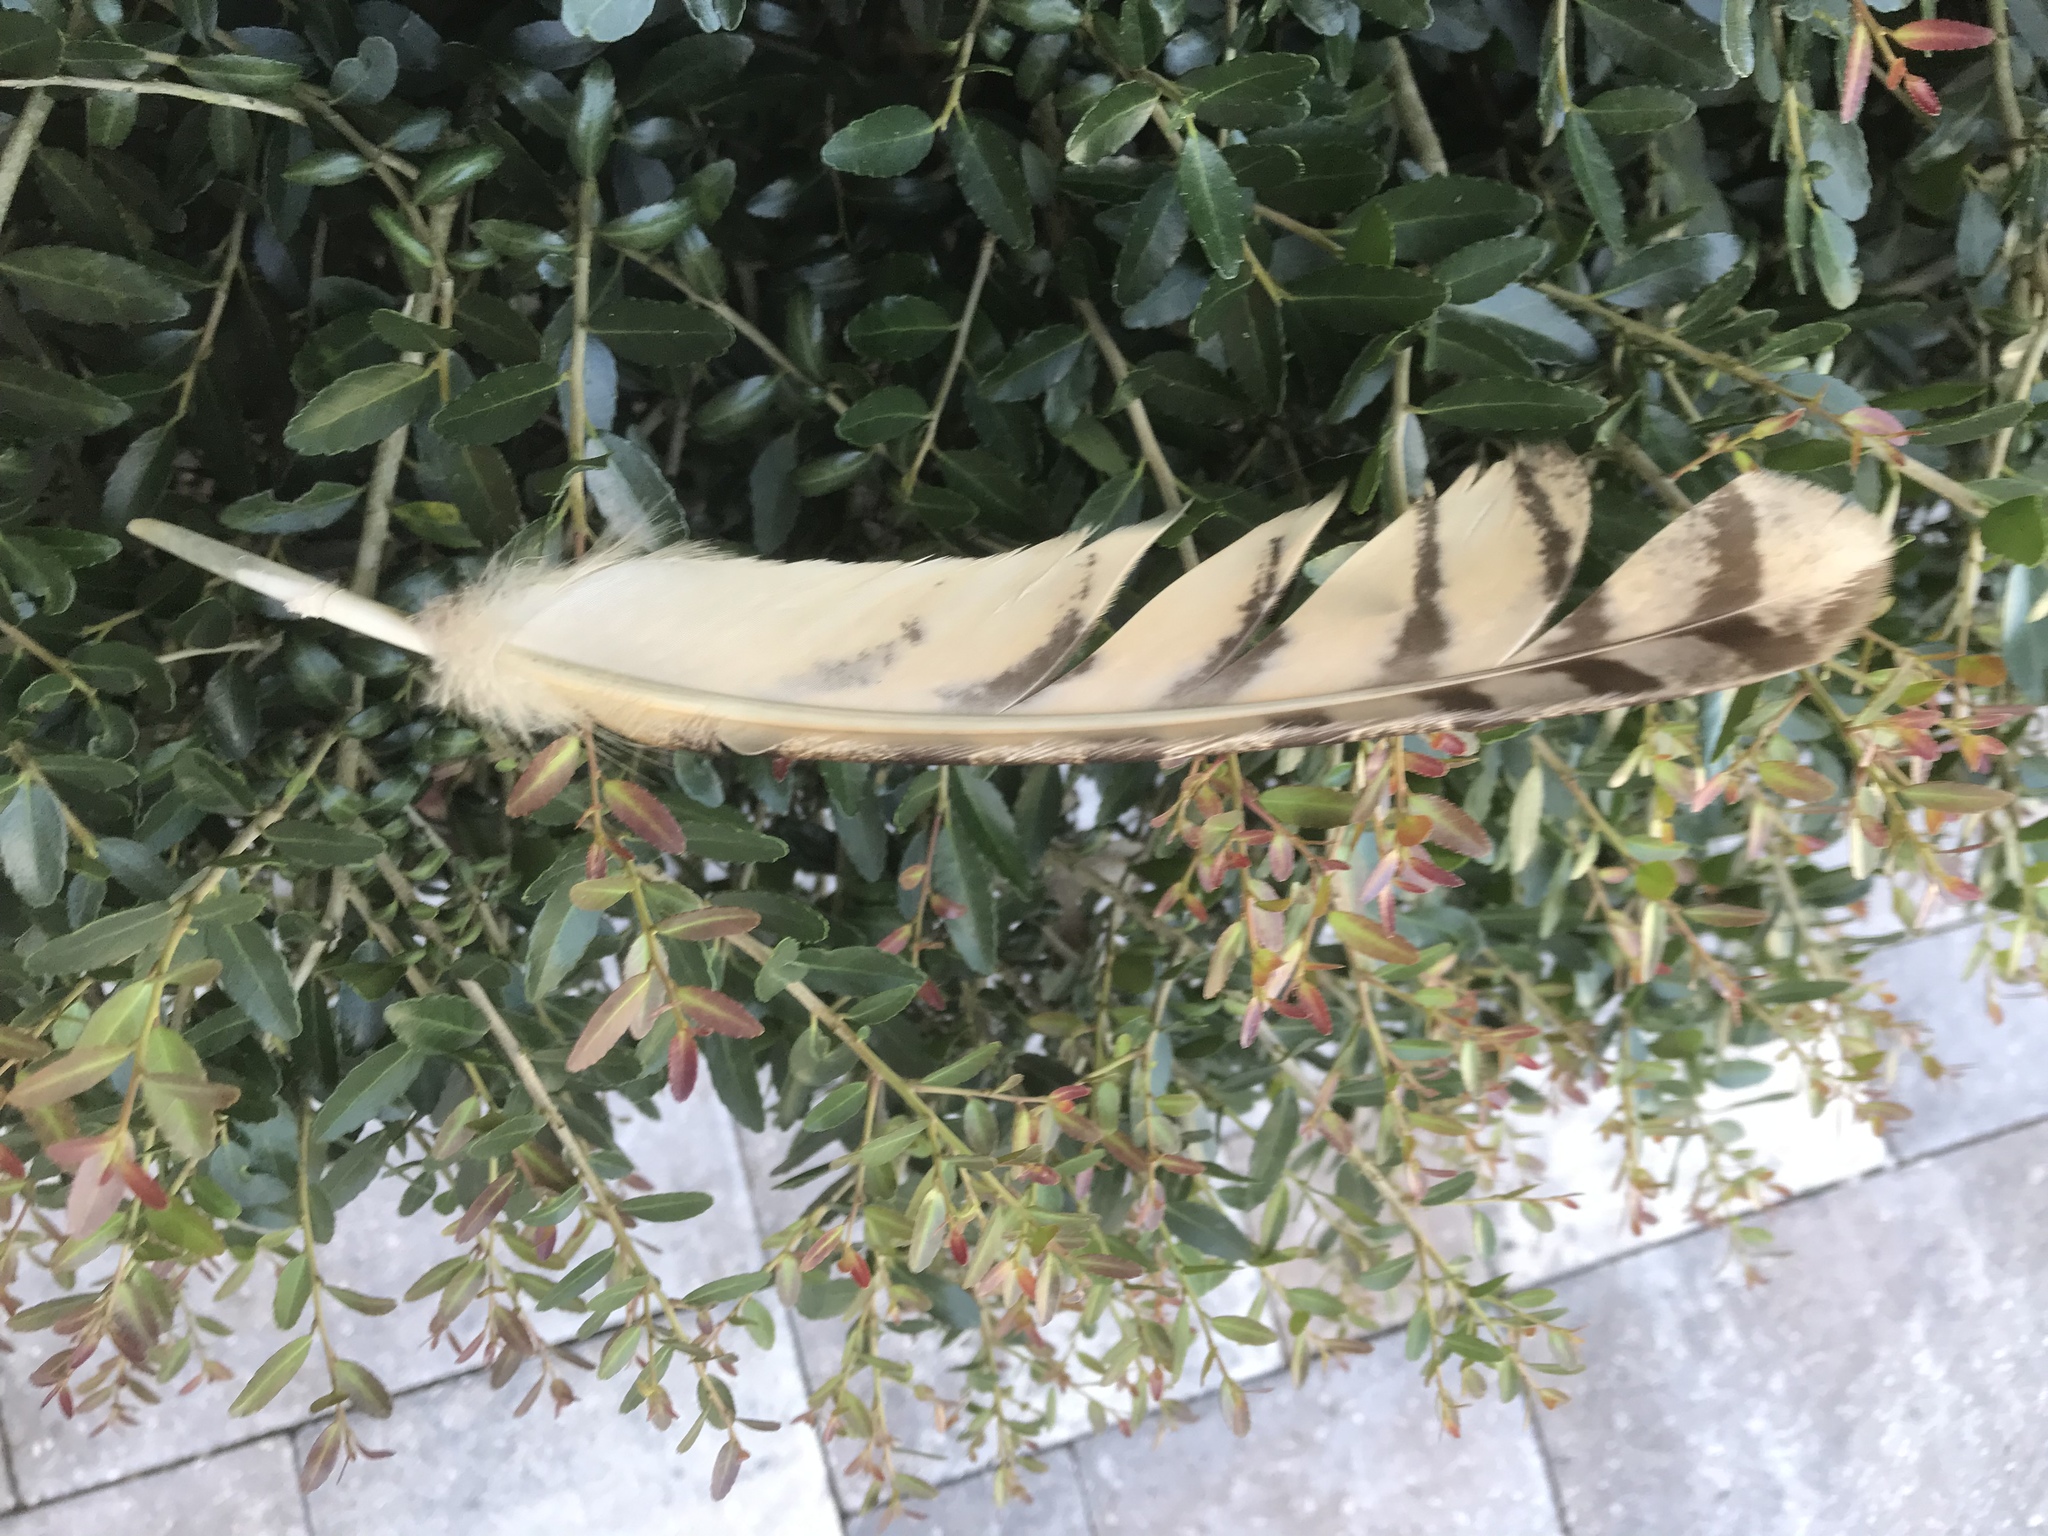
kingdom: Animalia
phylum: Chordata
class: Aves
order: Strigiformes
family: Strigidae
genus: Bubo
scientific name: Bubo virginianus
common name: Great horned owl
